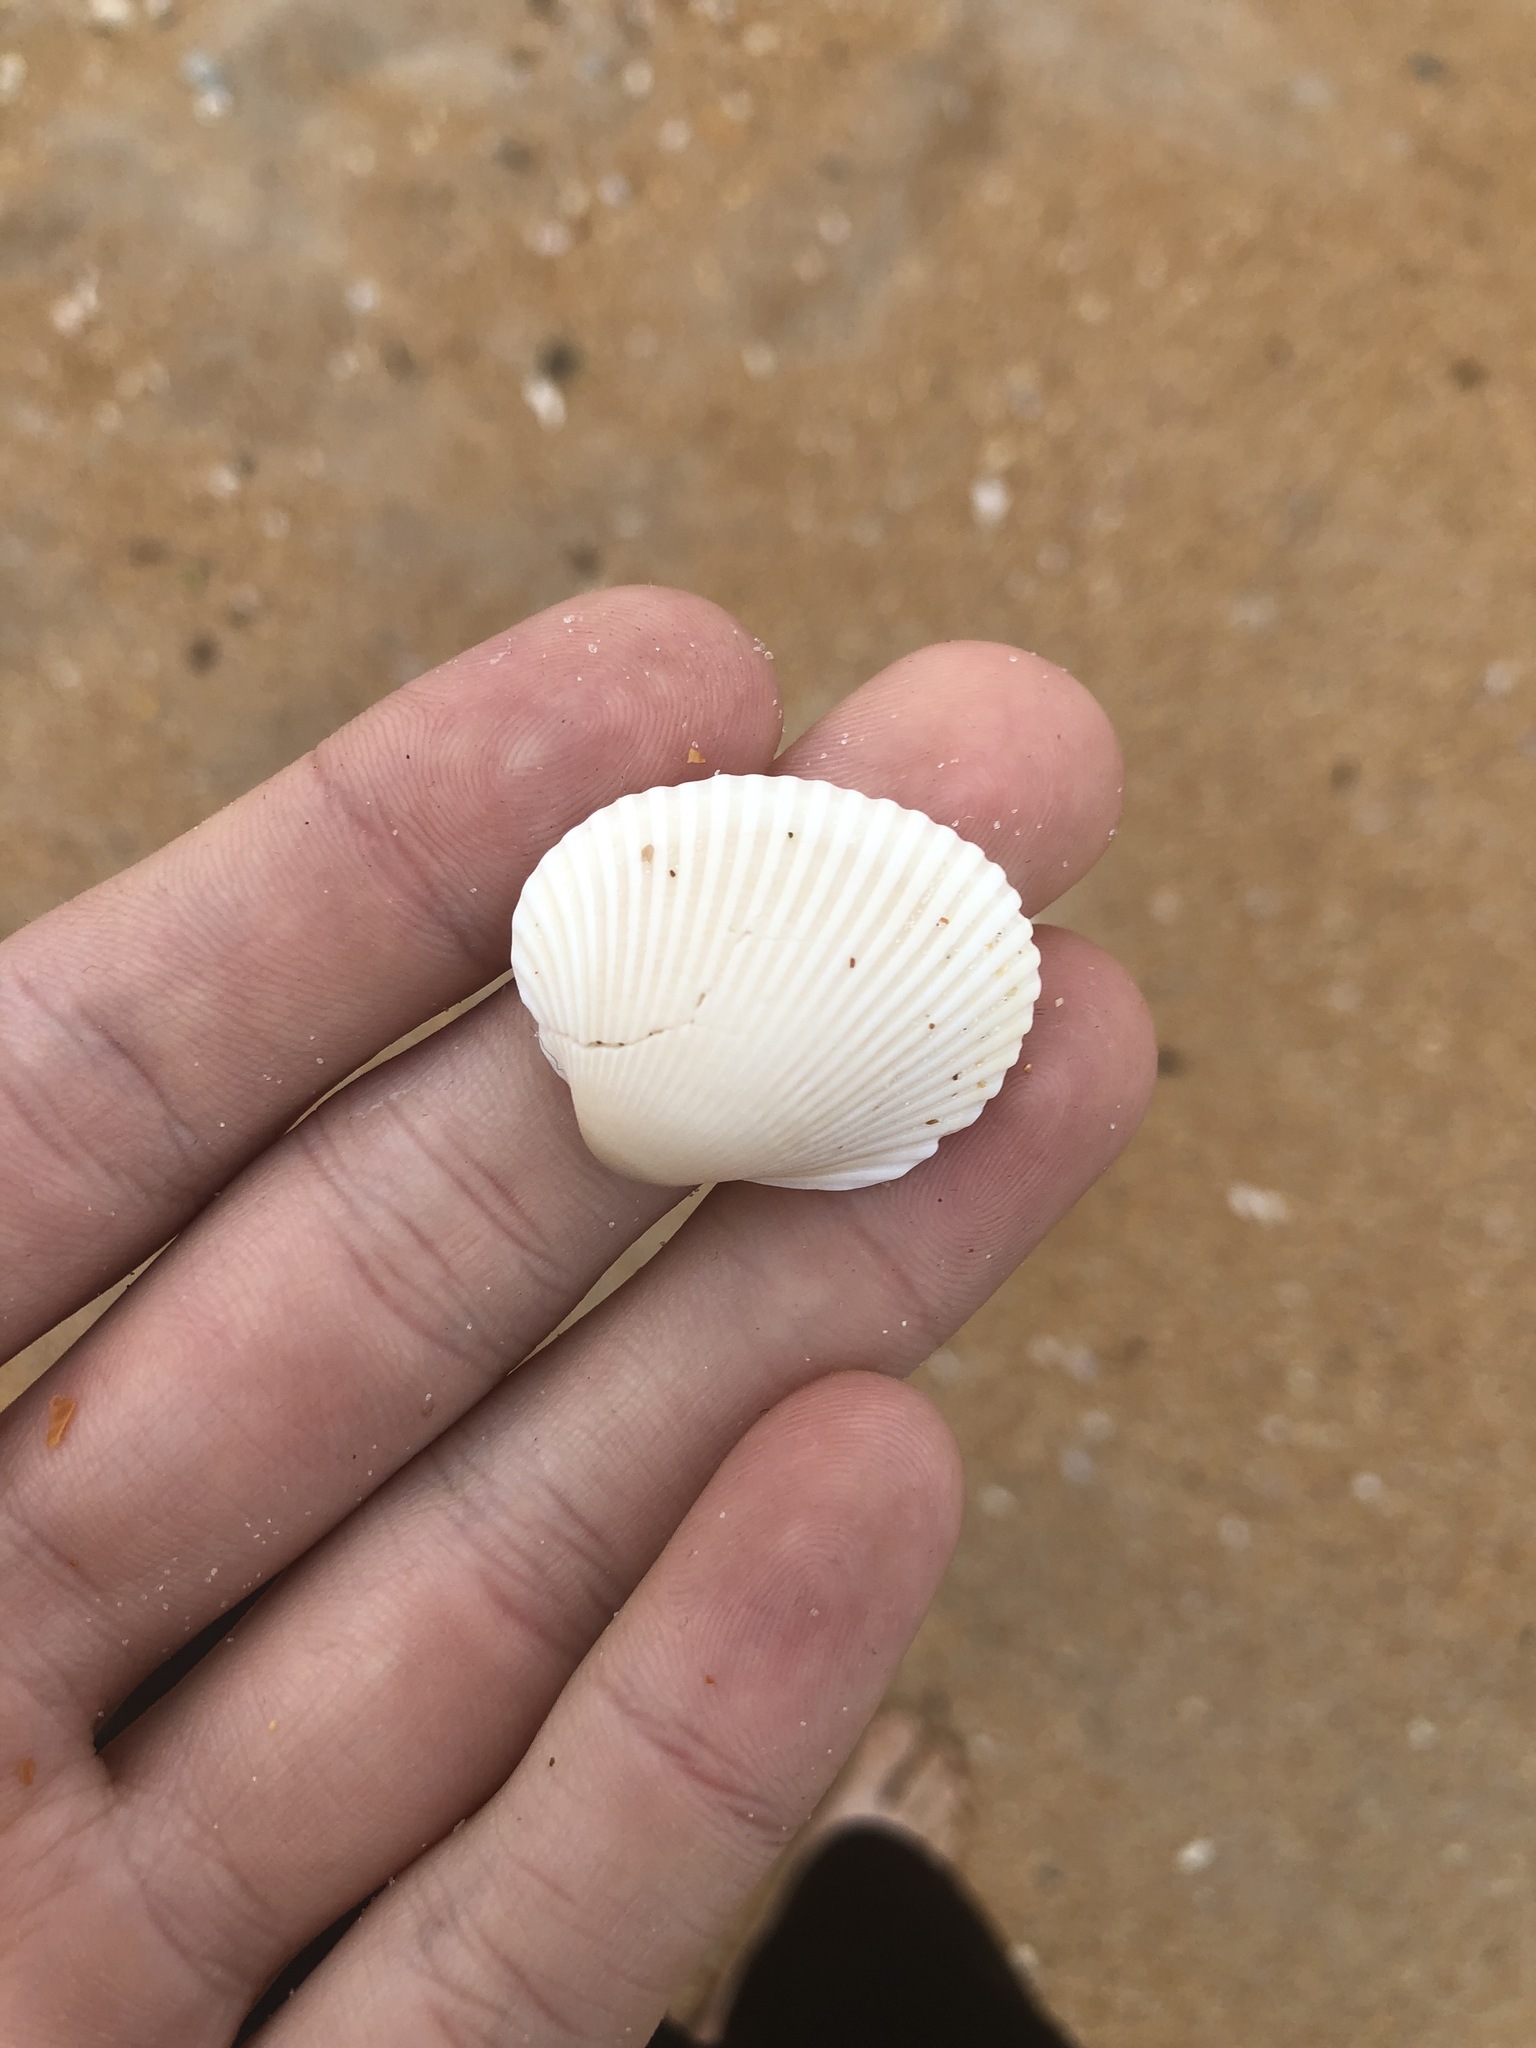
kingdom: Animalia
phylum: Mollusca
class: Bivalvia
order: Arcida
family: Arcidae
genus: Lunarca
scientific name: Lunarca ovalis
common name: Blood ark
